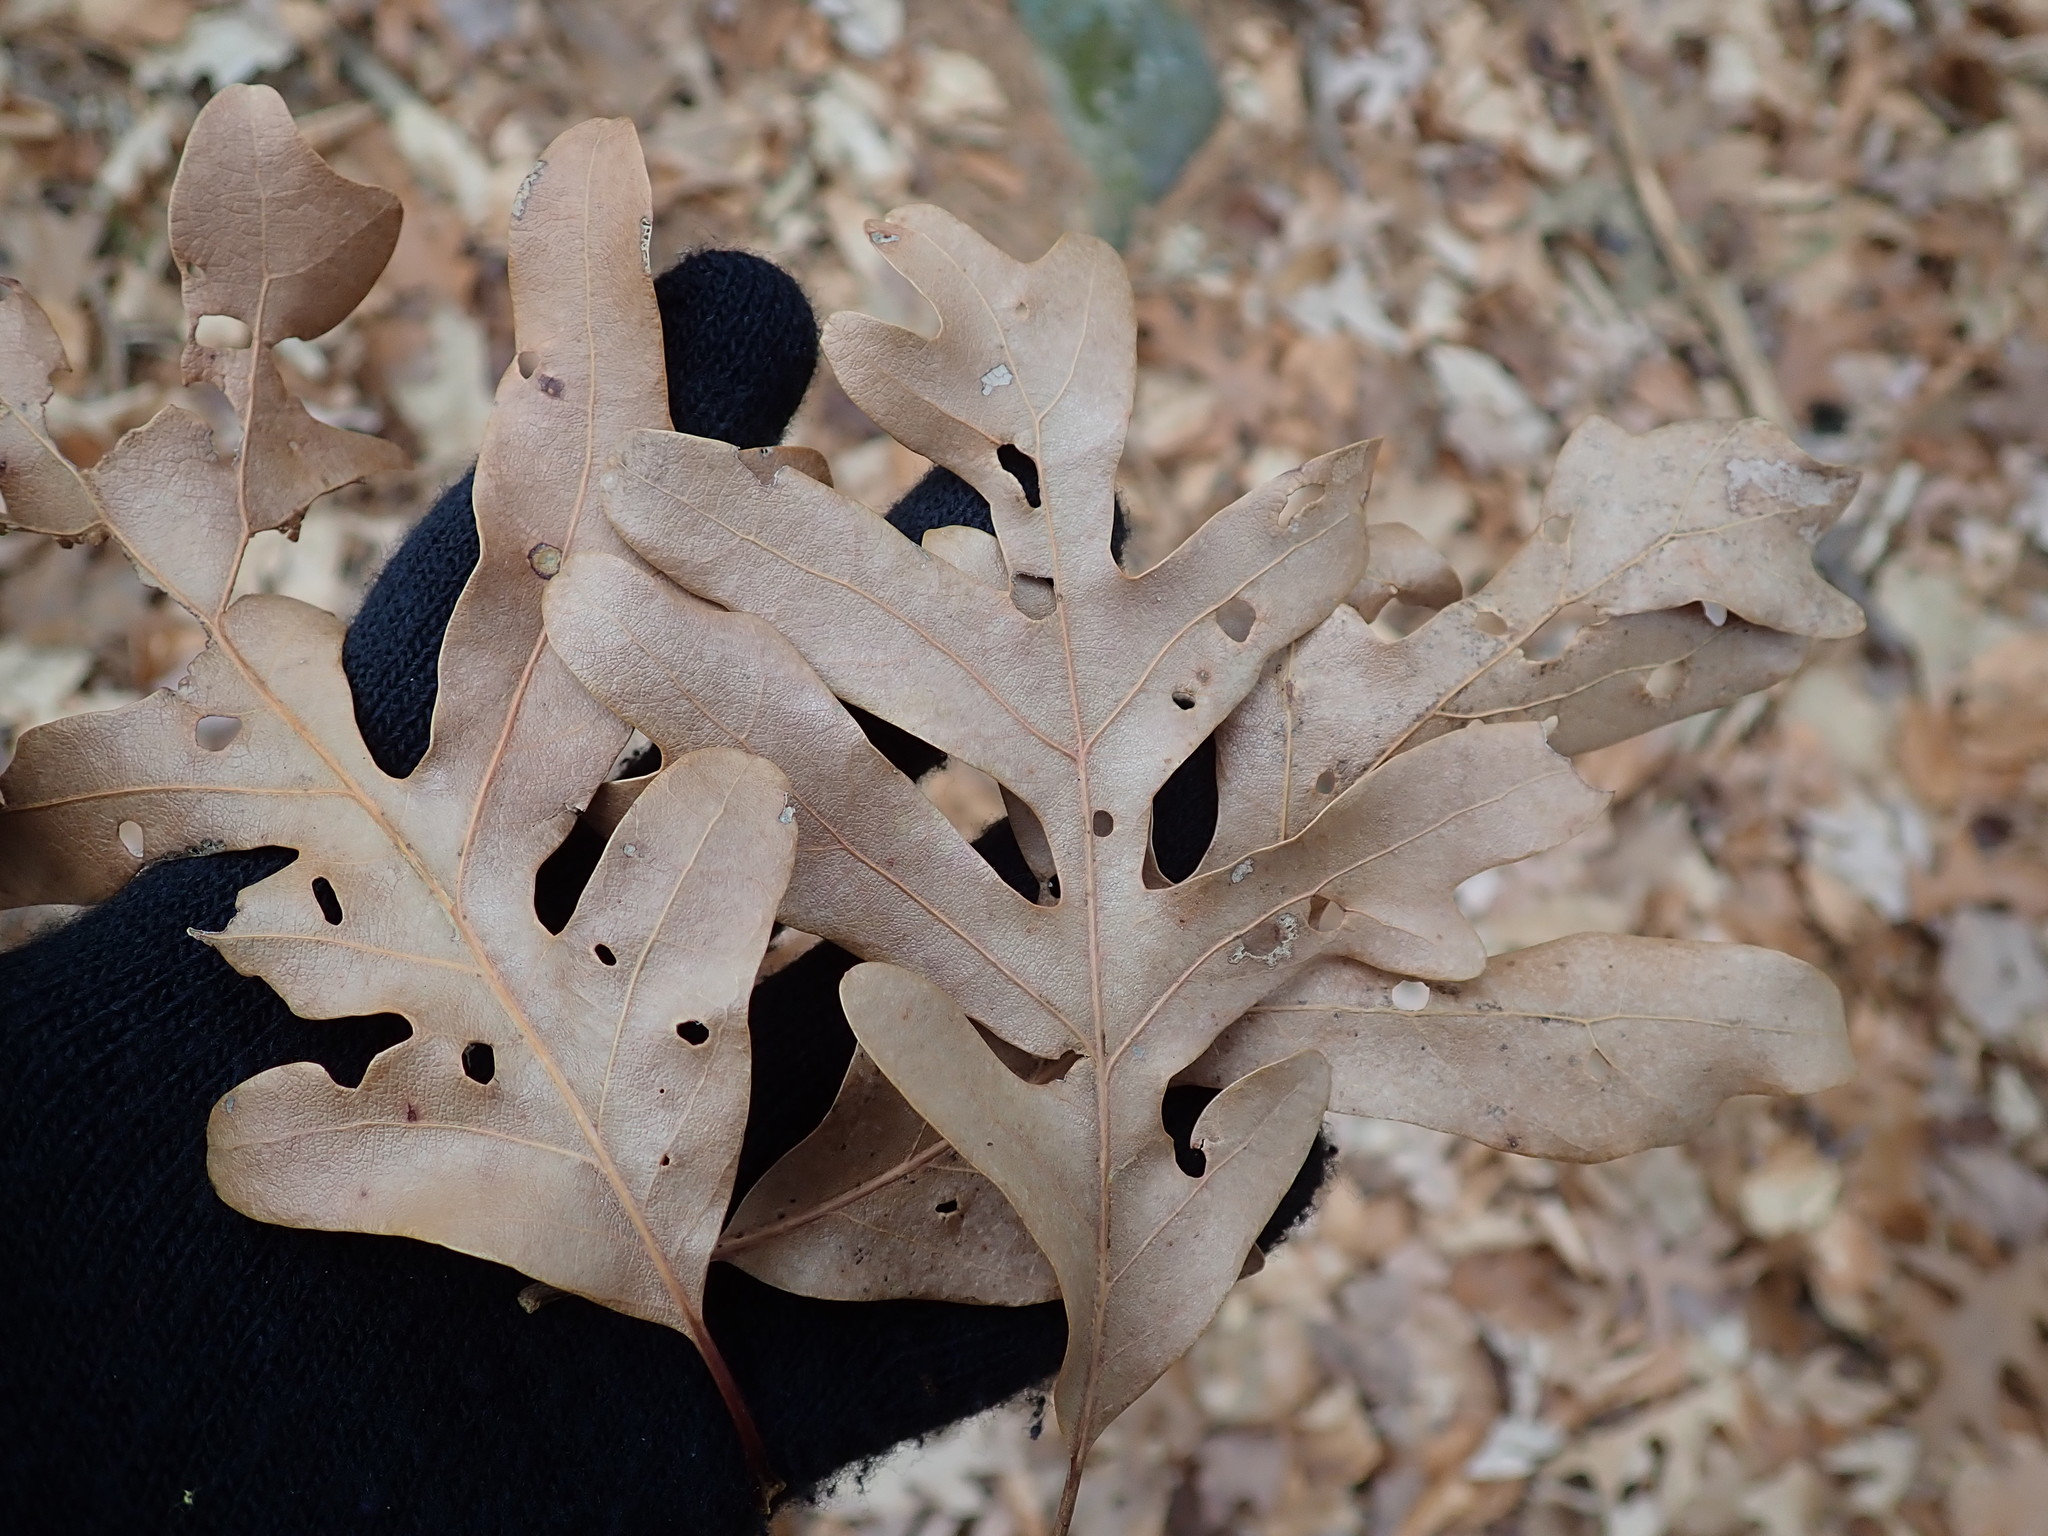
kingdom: Plantae
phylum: Tracheophyta
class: Magnoliopsida
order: Fagales
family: Fagaceae
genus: Quercus
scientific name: Quercus alba
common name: White oak
